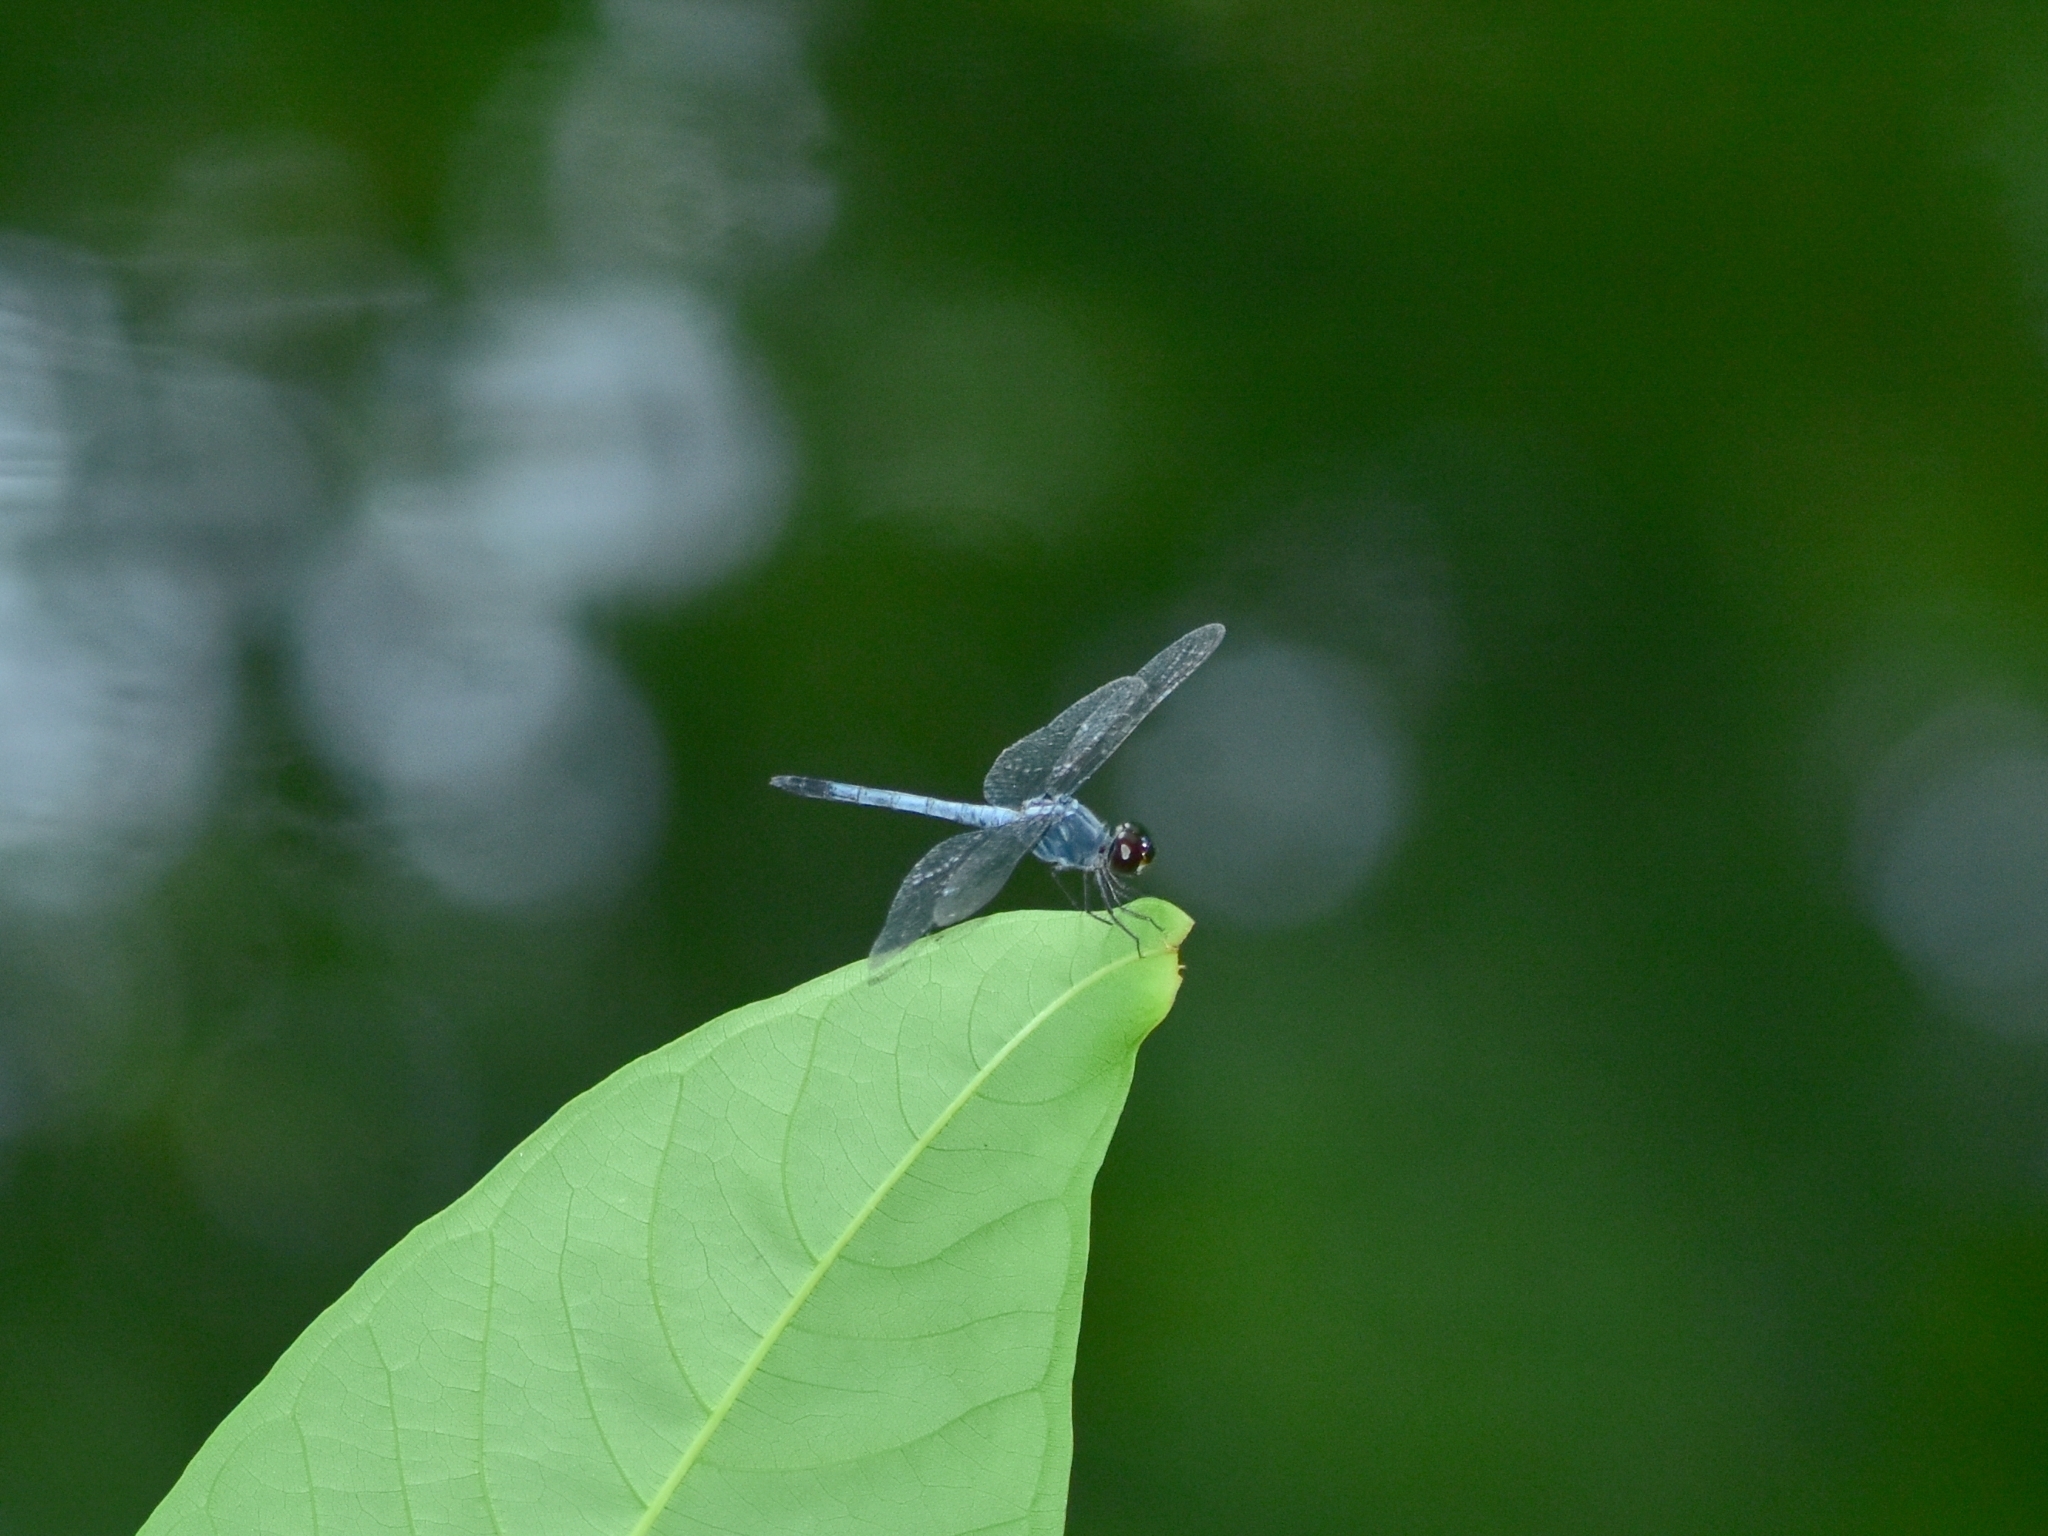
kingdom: Animalia
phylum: Arthropoda
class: Insecta
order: Odonata
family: Libellulidae
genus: Brachydiplax
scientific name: Brachydiplax sobrina
